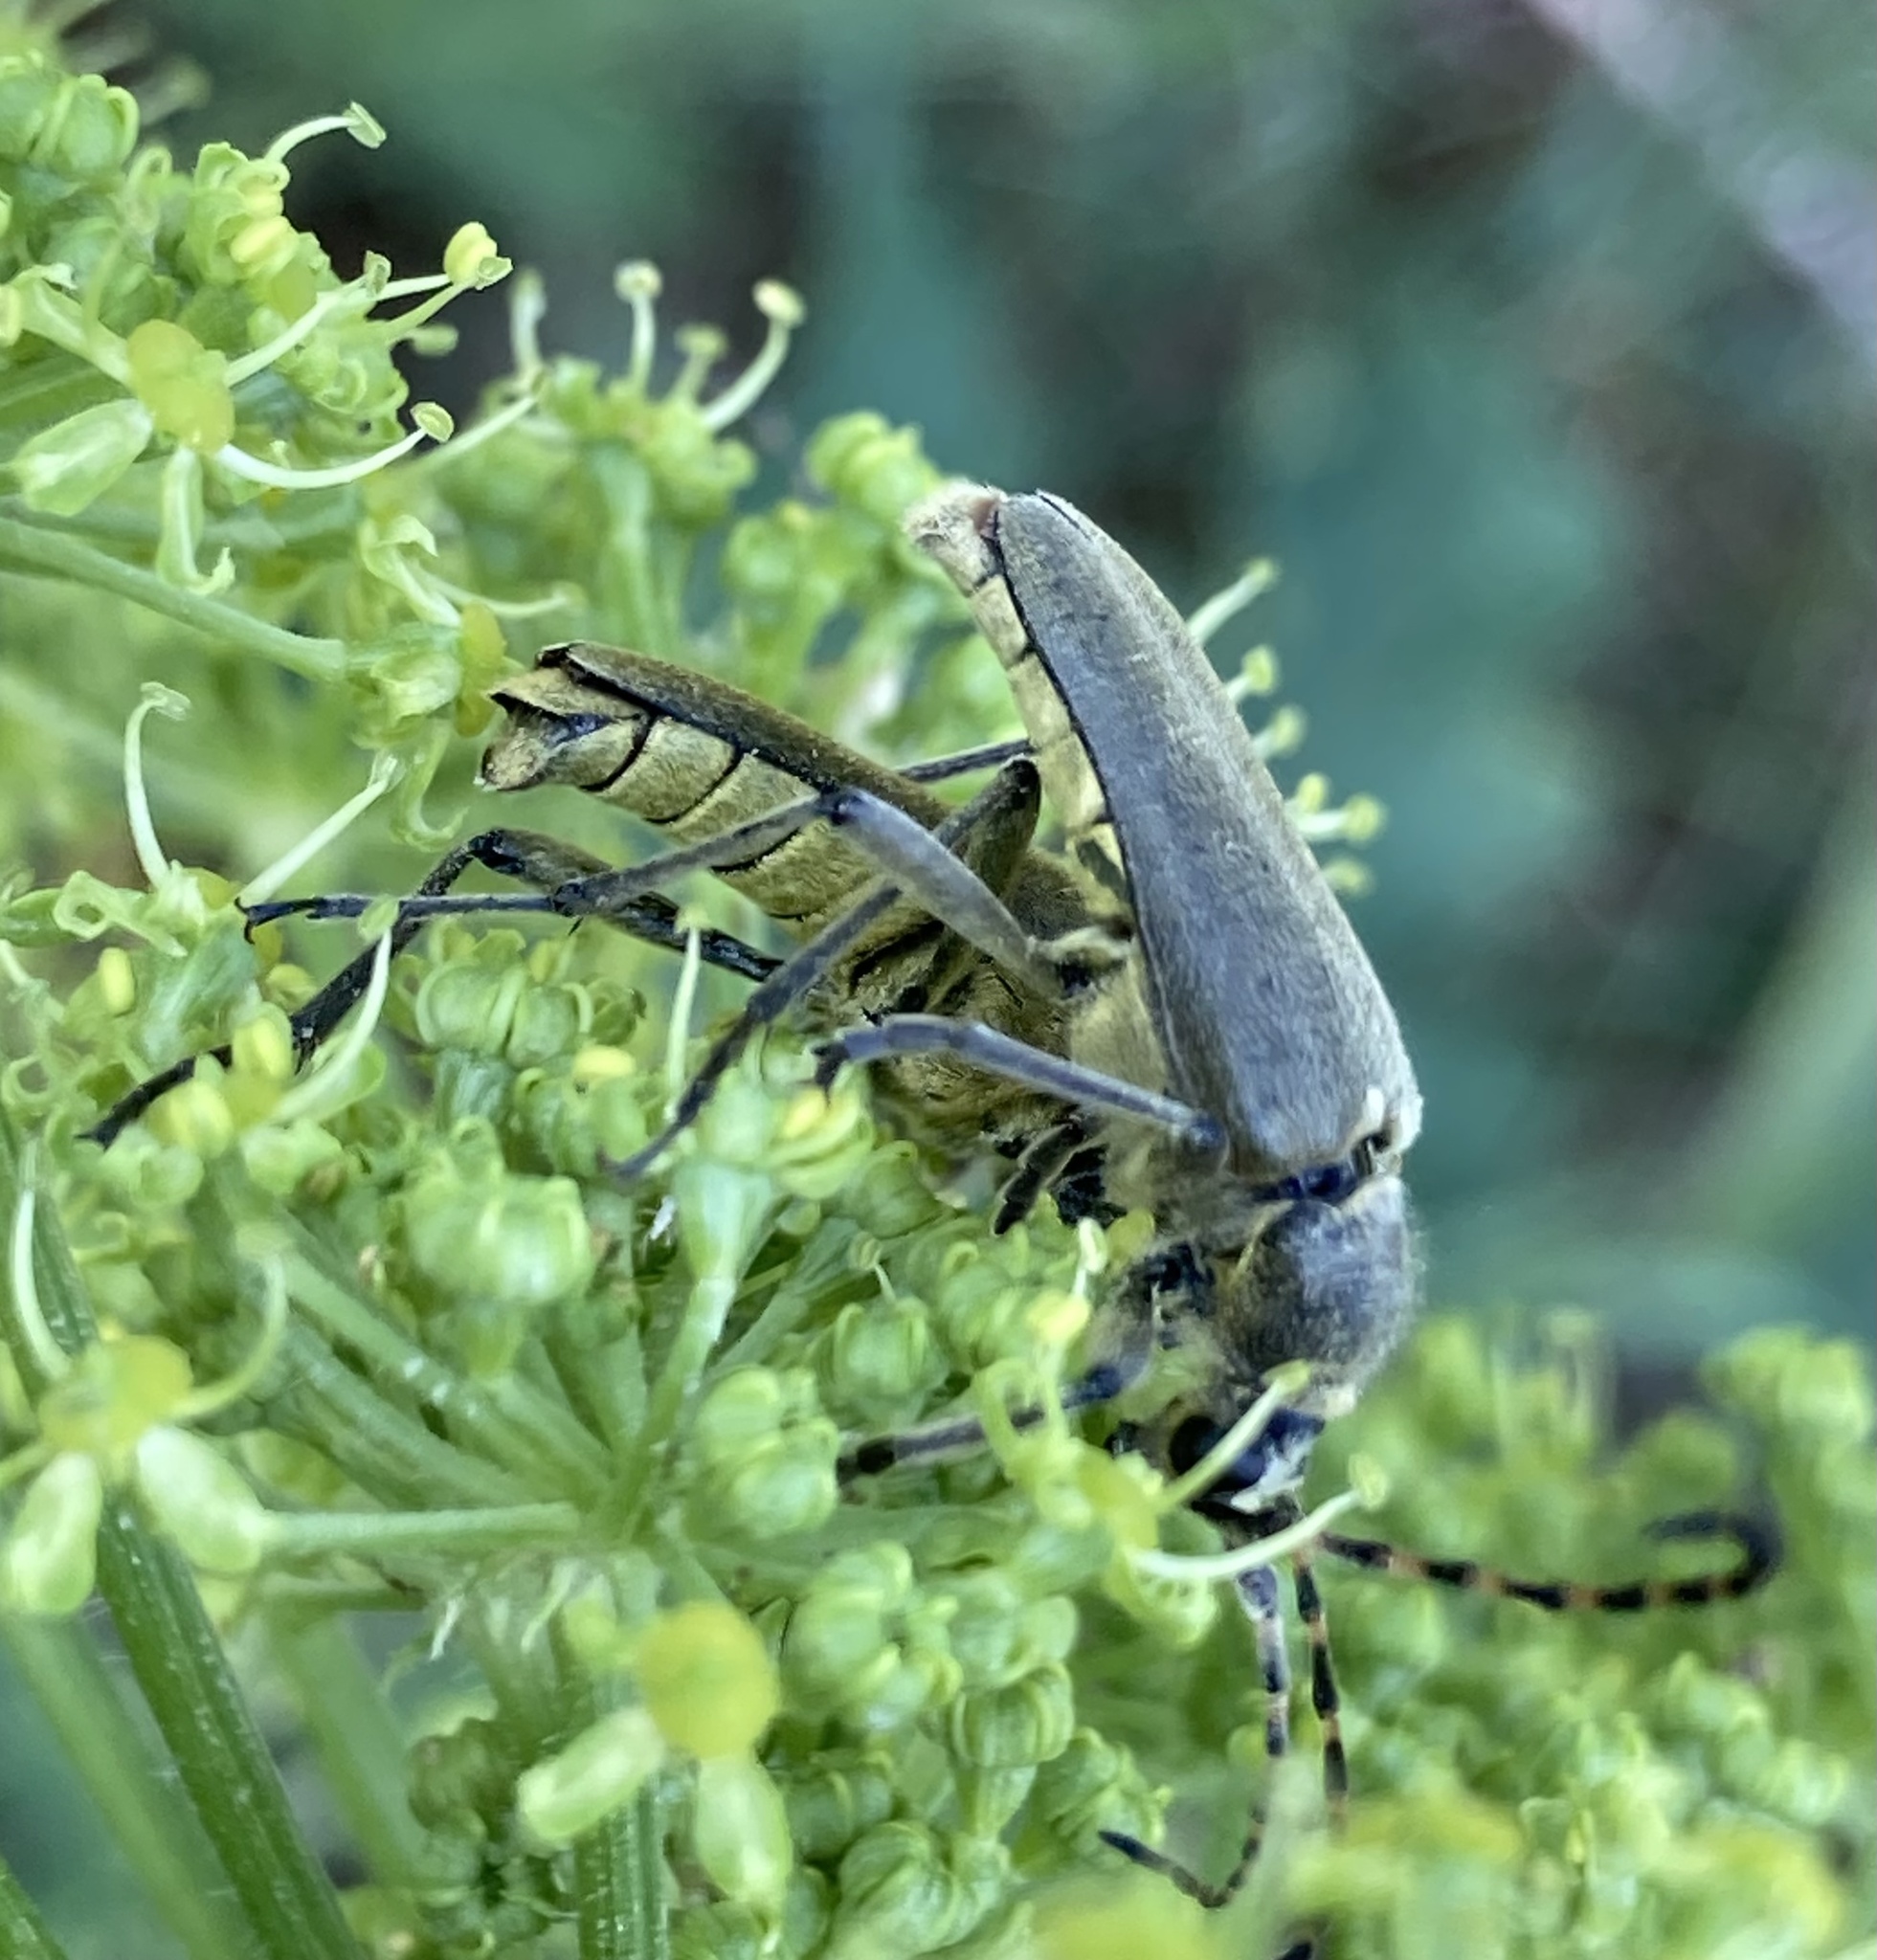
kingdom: Animalia
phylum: Arthropoda
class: Insecta
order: Coleoptera
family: Cerambycidae
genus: Lepturobosca
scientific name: Lepturobosca virens
